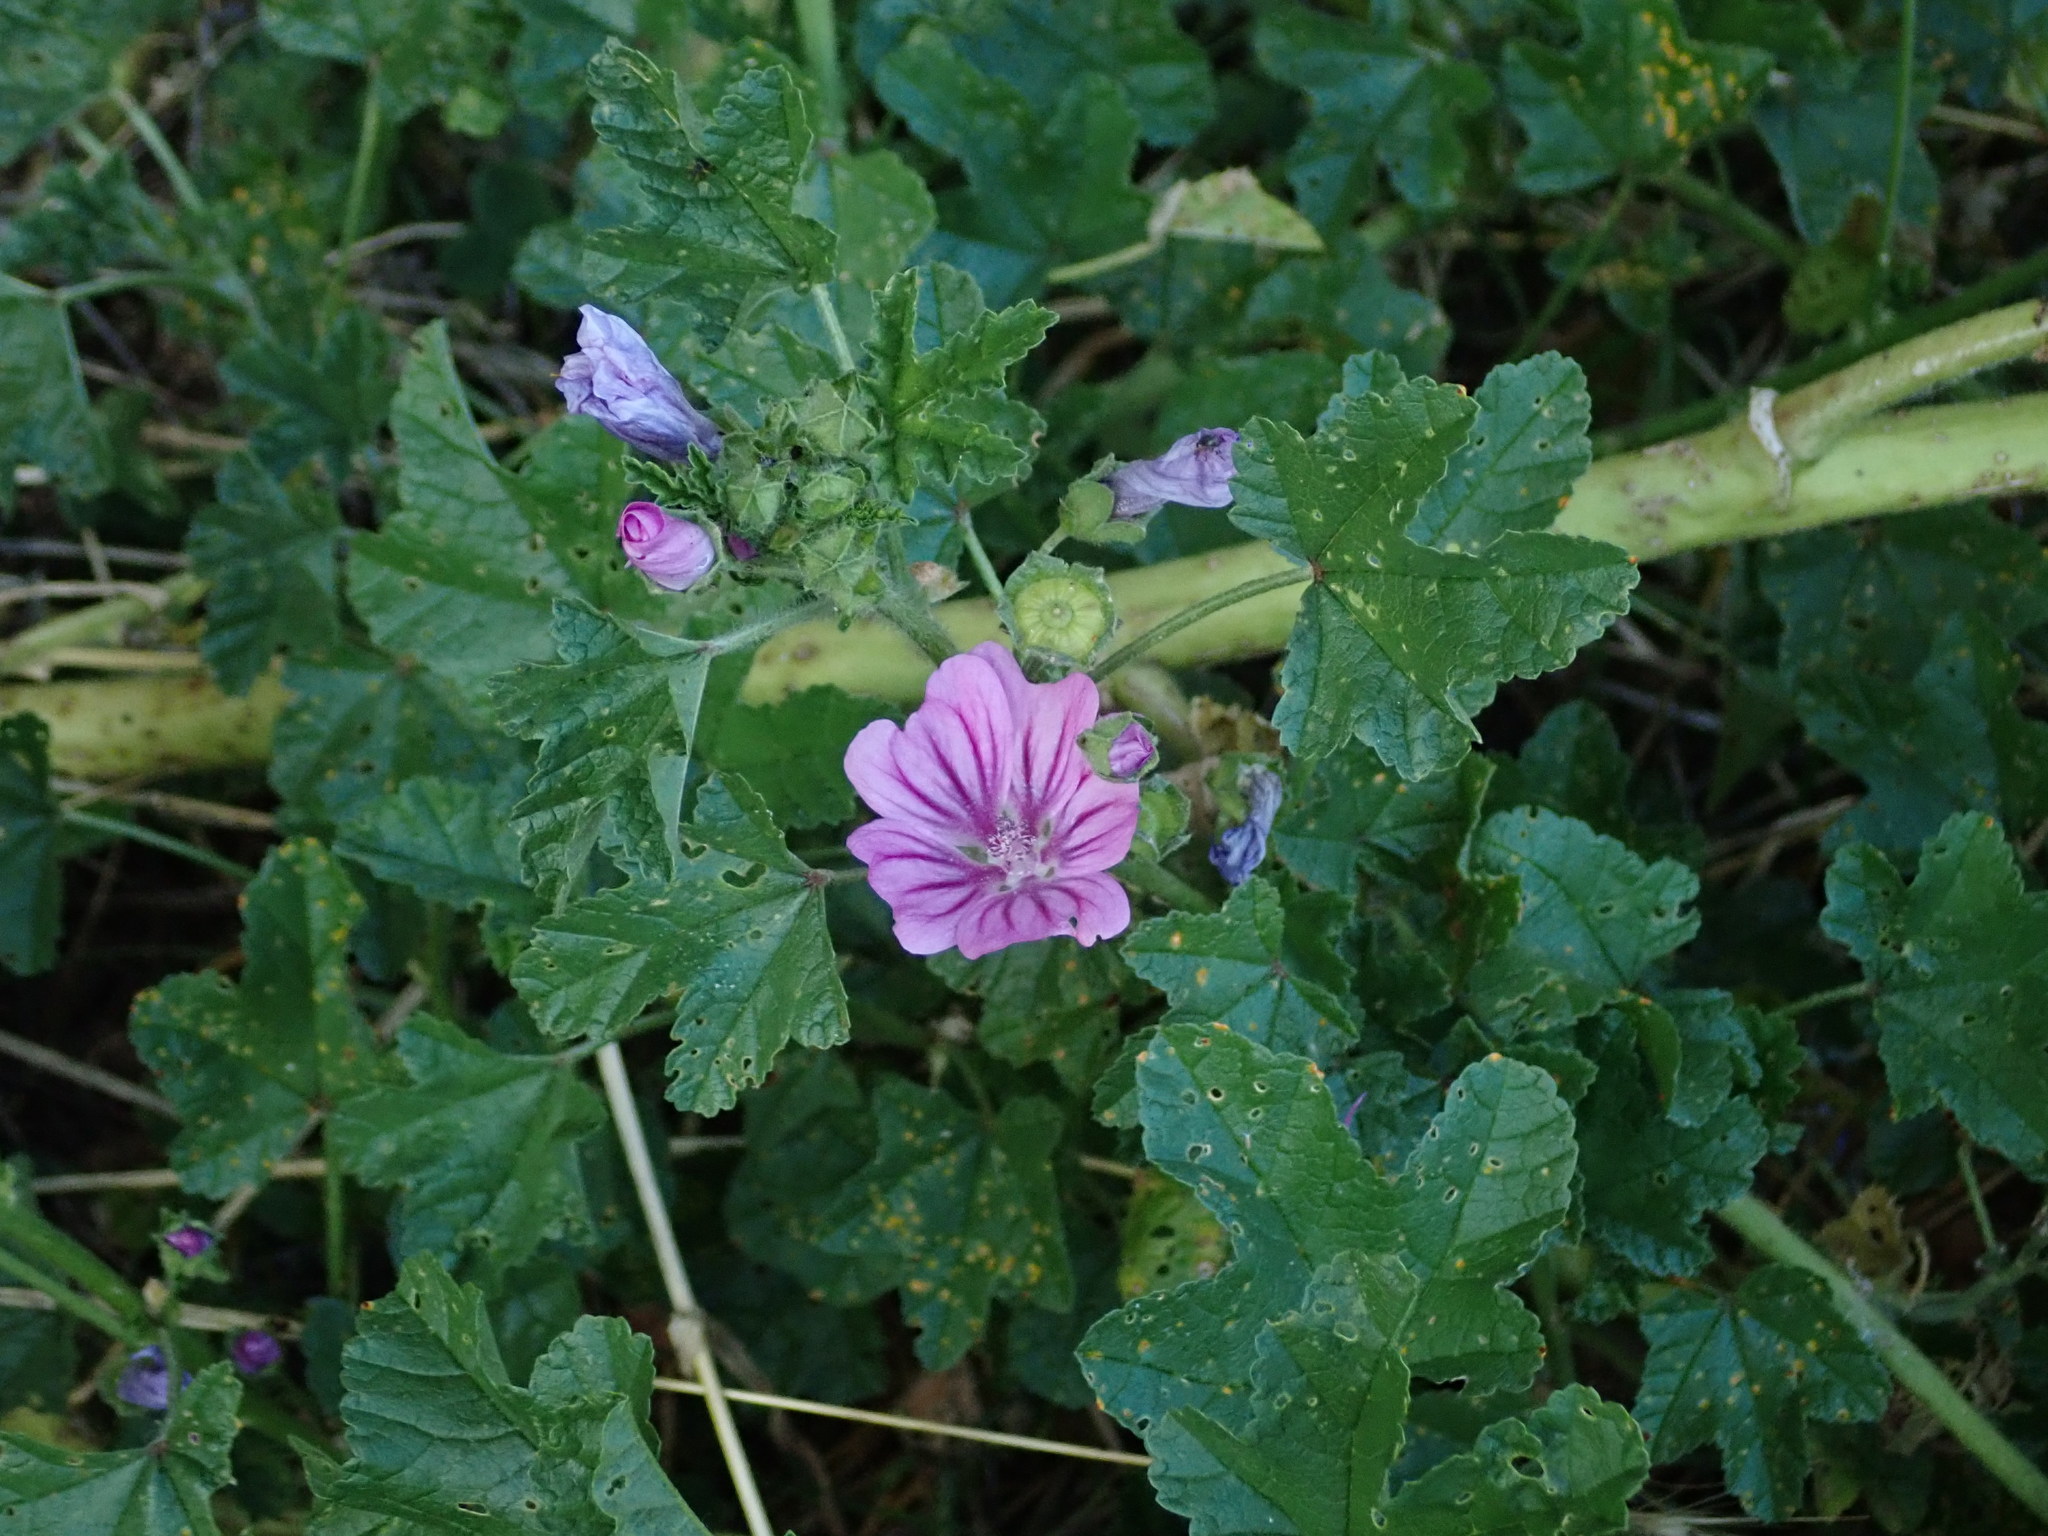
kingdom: Plantae
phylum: Tracheophyta
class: Magnoliopsida
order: Malvales
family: Malvaceae
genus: Malva
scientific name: Malva sylvestris
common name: Common mallow
